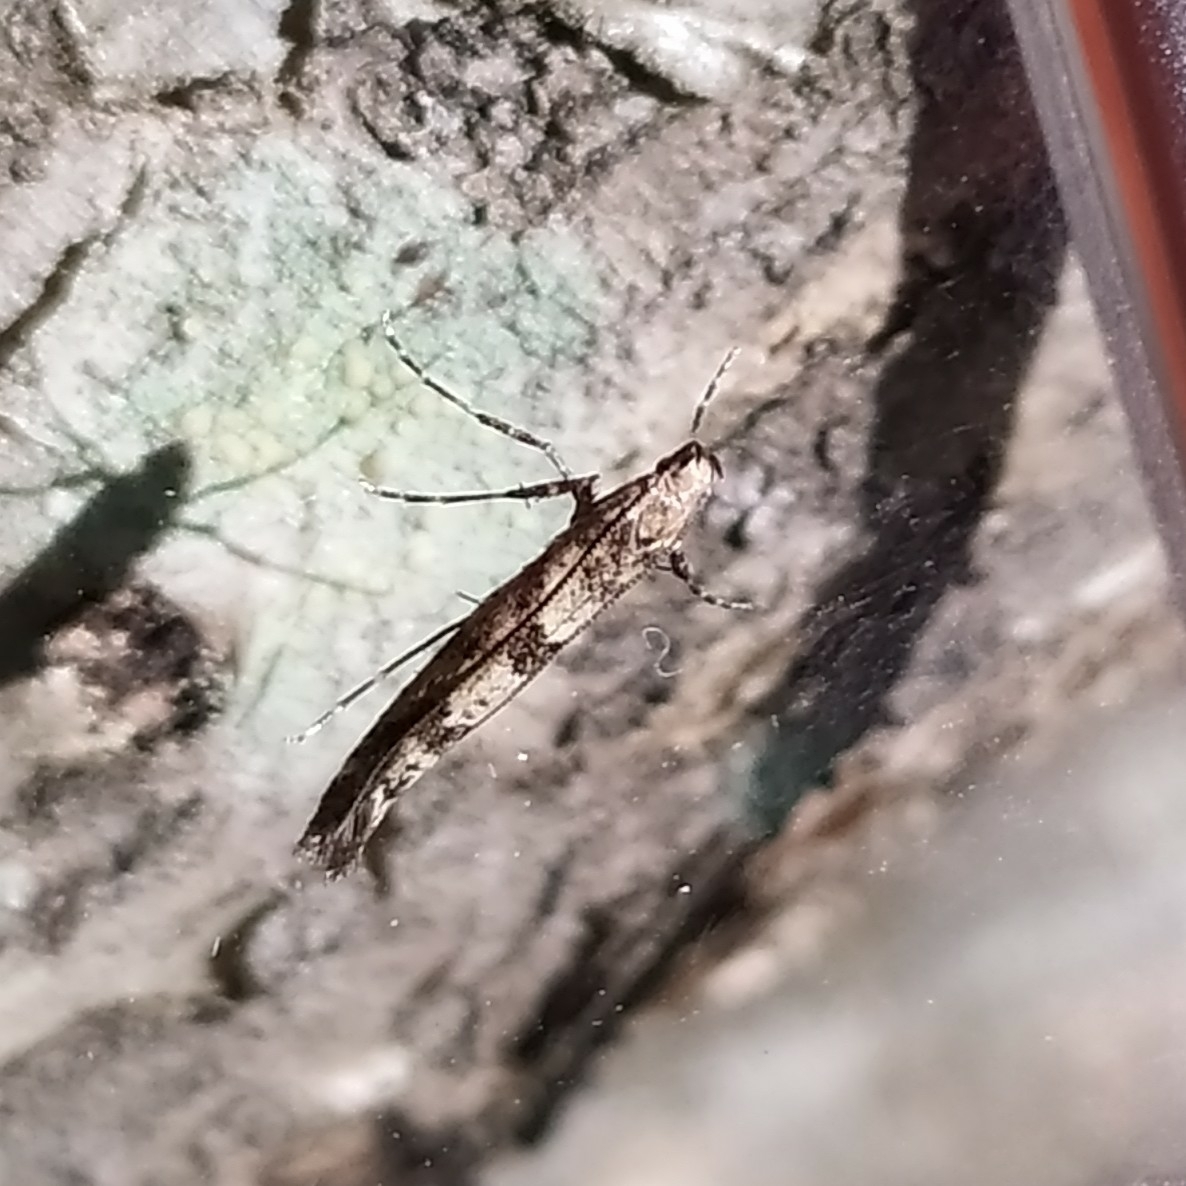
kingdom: Animalia
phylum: Arthropoda
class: Insecta
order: Lepidoptera
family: Gracillariidae
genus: Caloptilia
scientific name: Caloptilia suberinella
